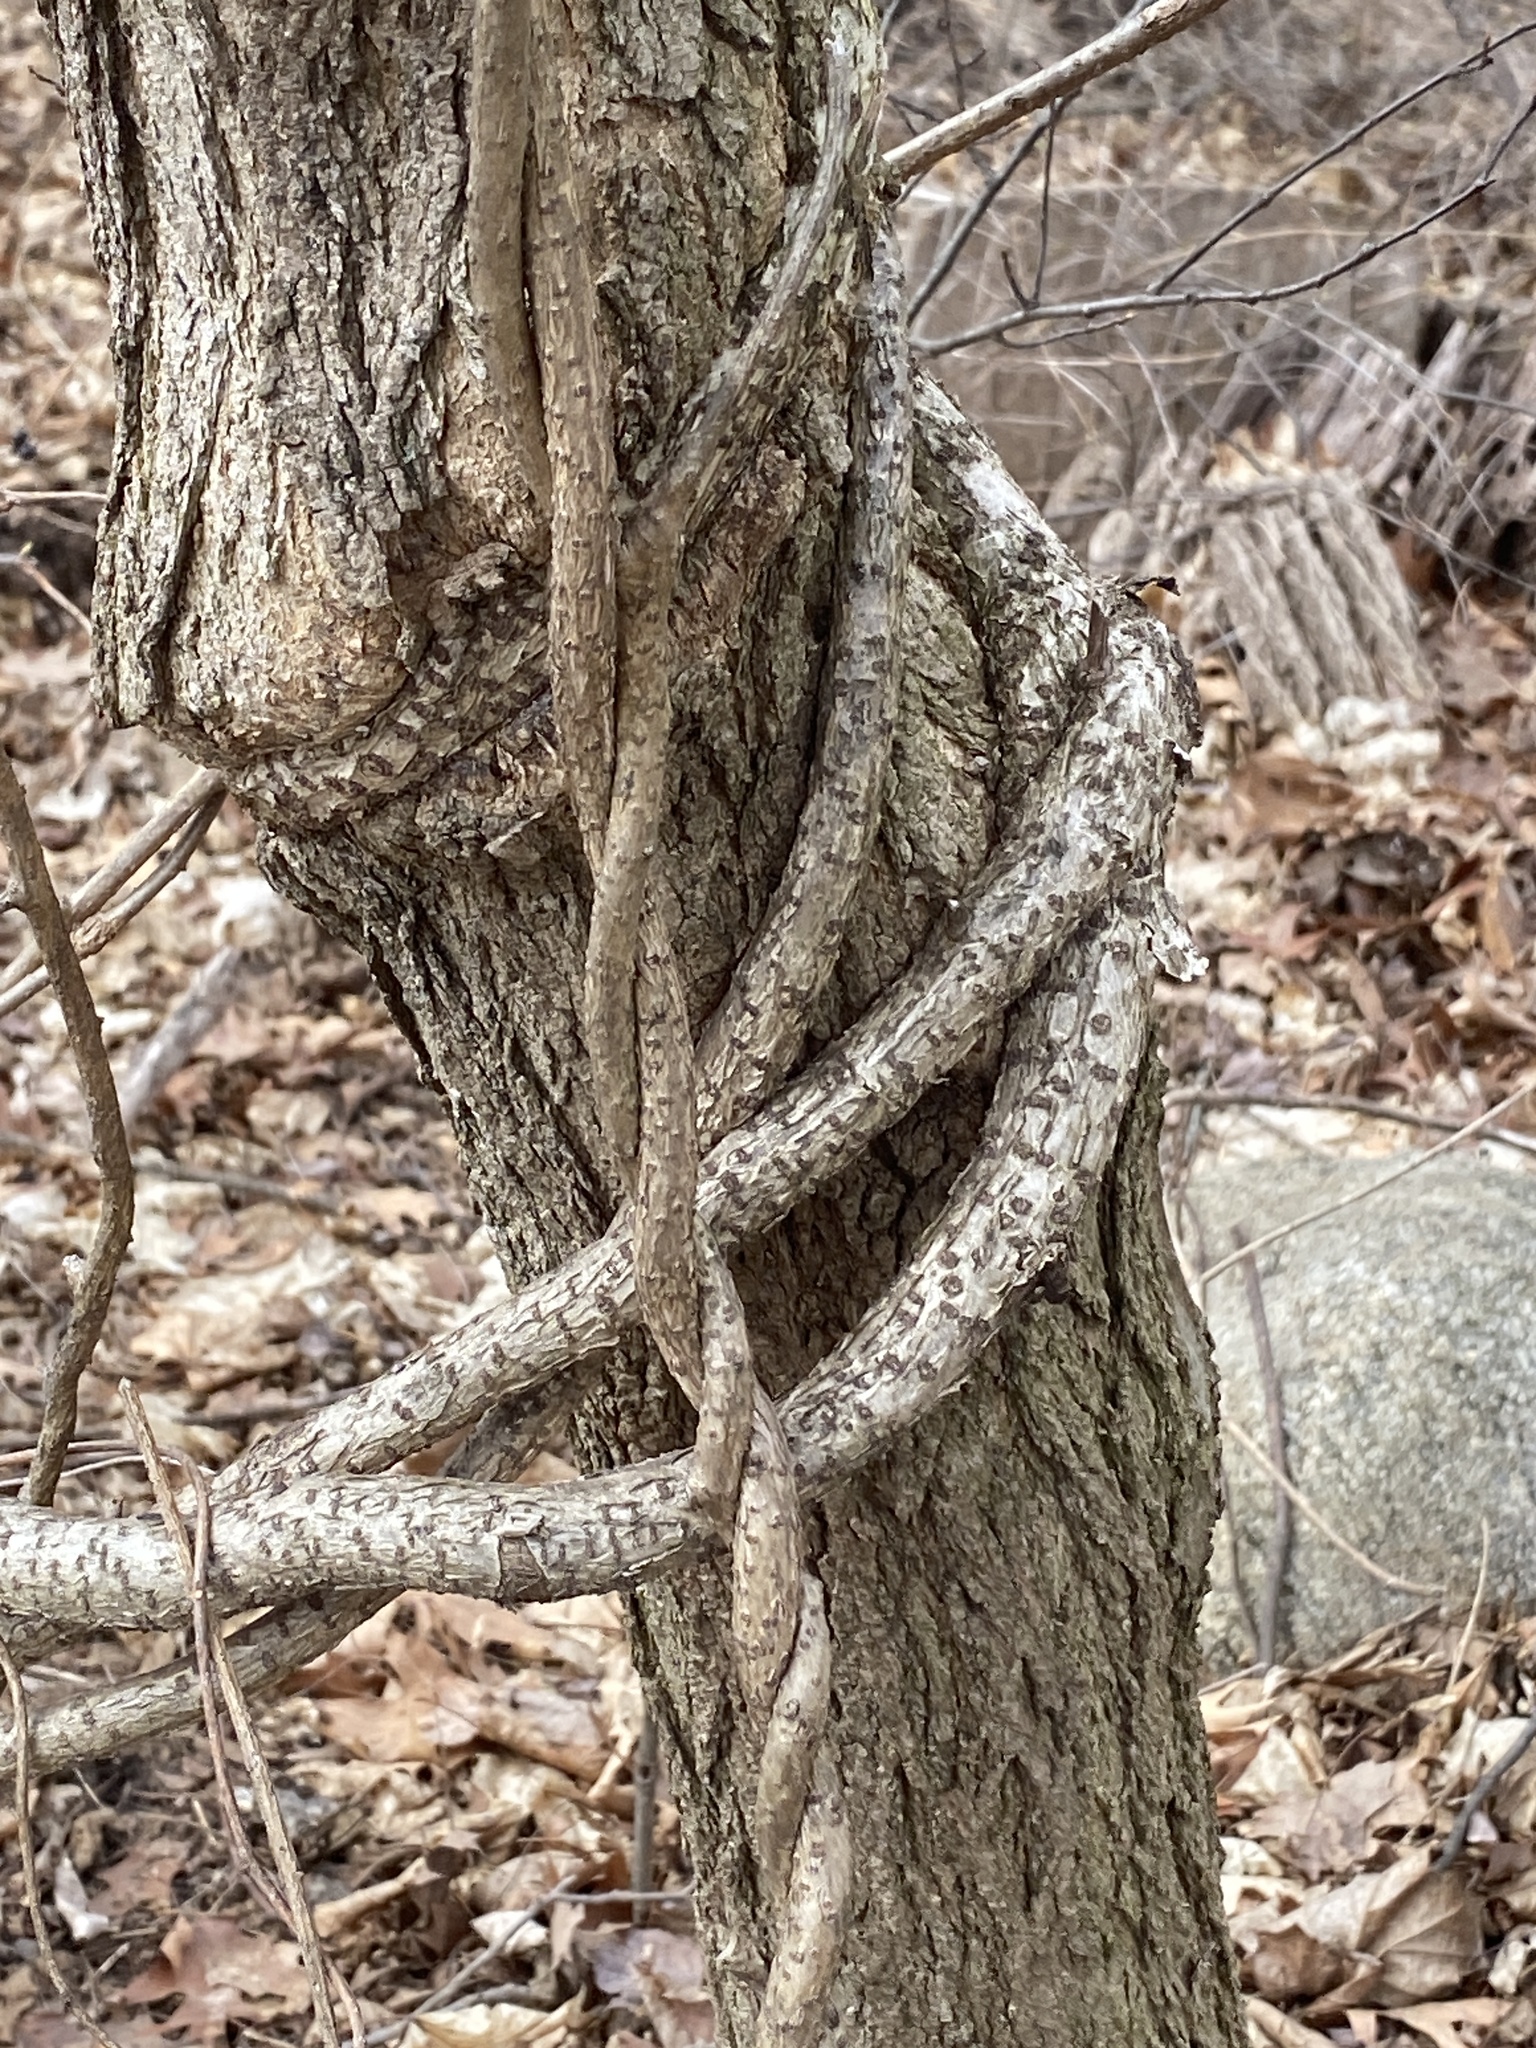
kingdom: Plantae
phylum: Tracheophyta
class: Magnoliopsida
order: Celastrales
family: Celastraceae
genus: Celastrus
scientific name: Celastrus orbiculatus
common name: Oriental bittersweet
